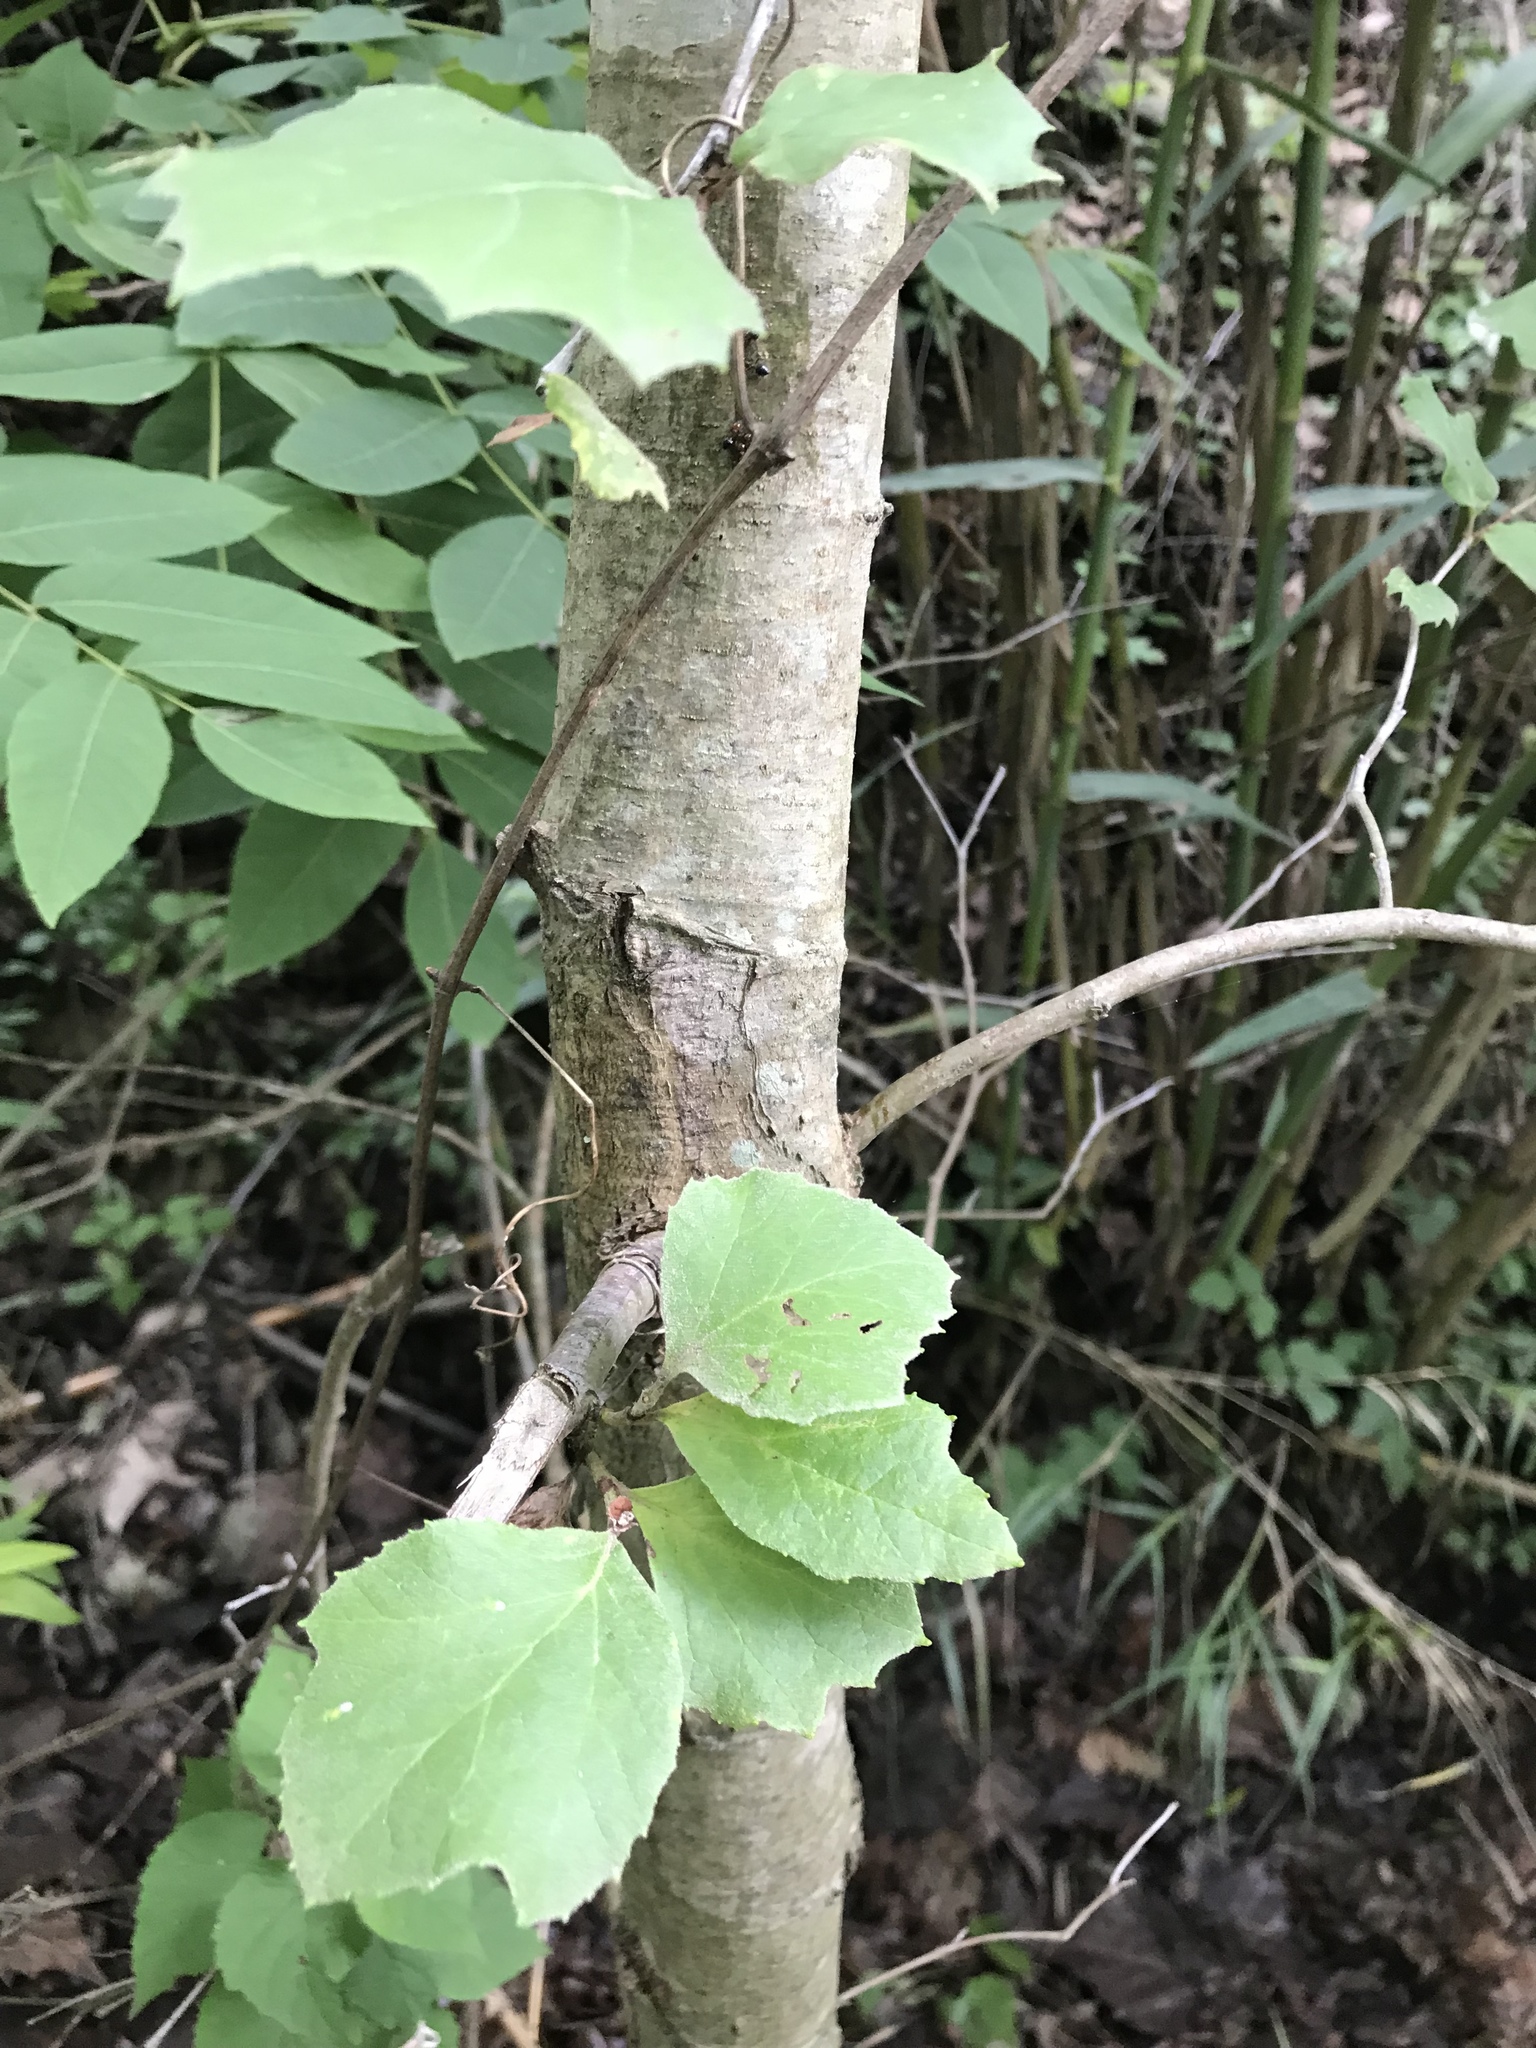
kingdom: Plantae
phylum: Tracheophyta
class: Magnoliopsida
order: Proteales
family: Platanaceae
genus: Platanus
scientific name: Platanus occidentalis
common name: American sycamore
